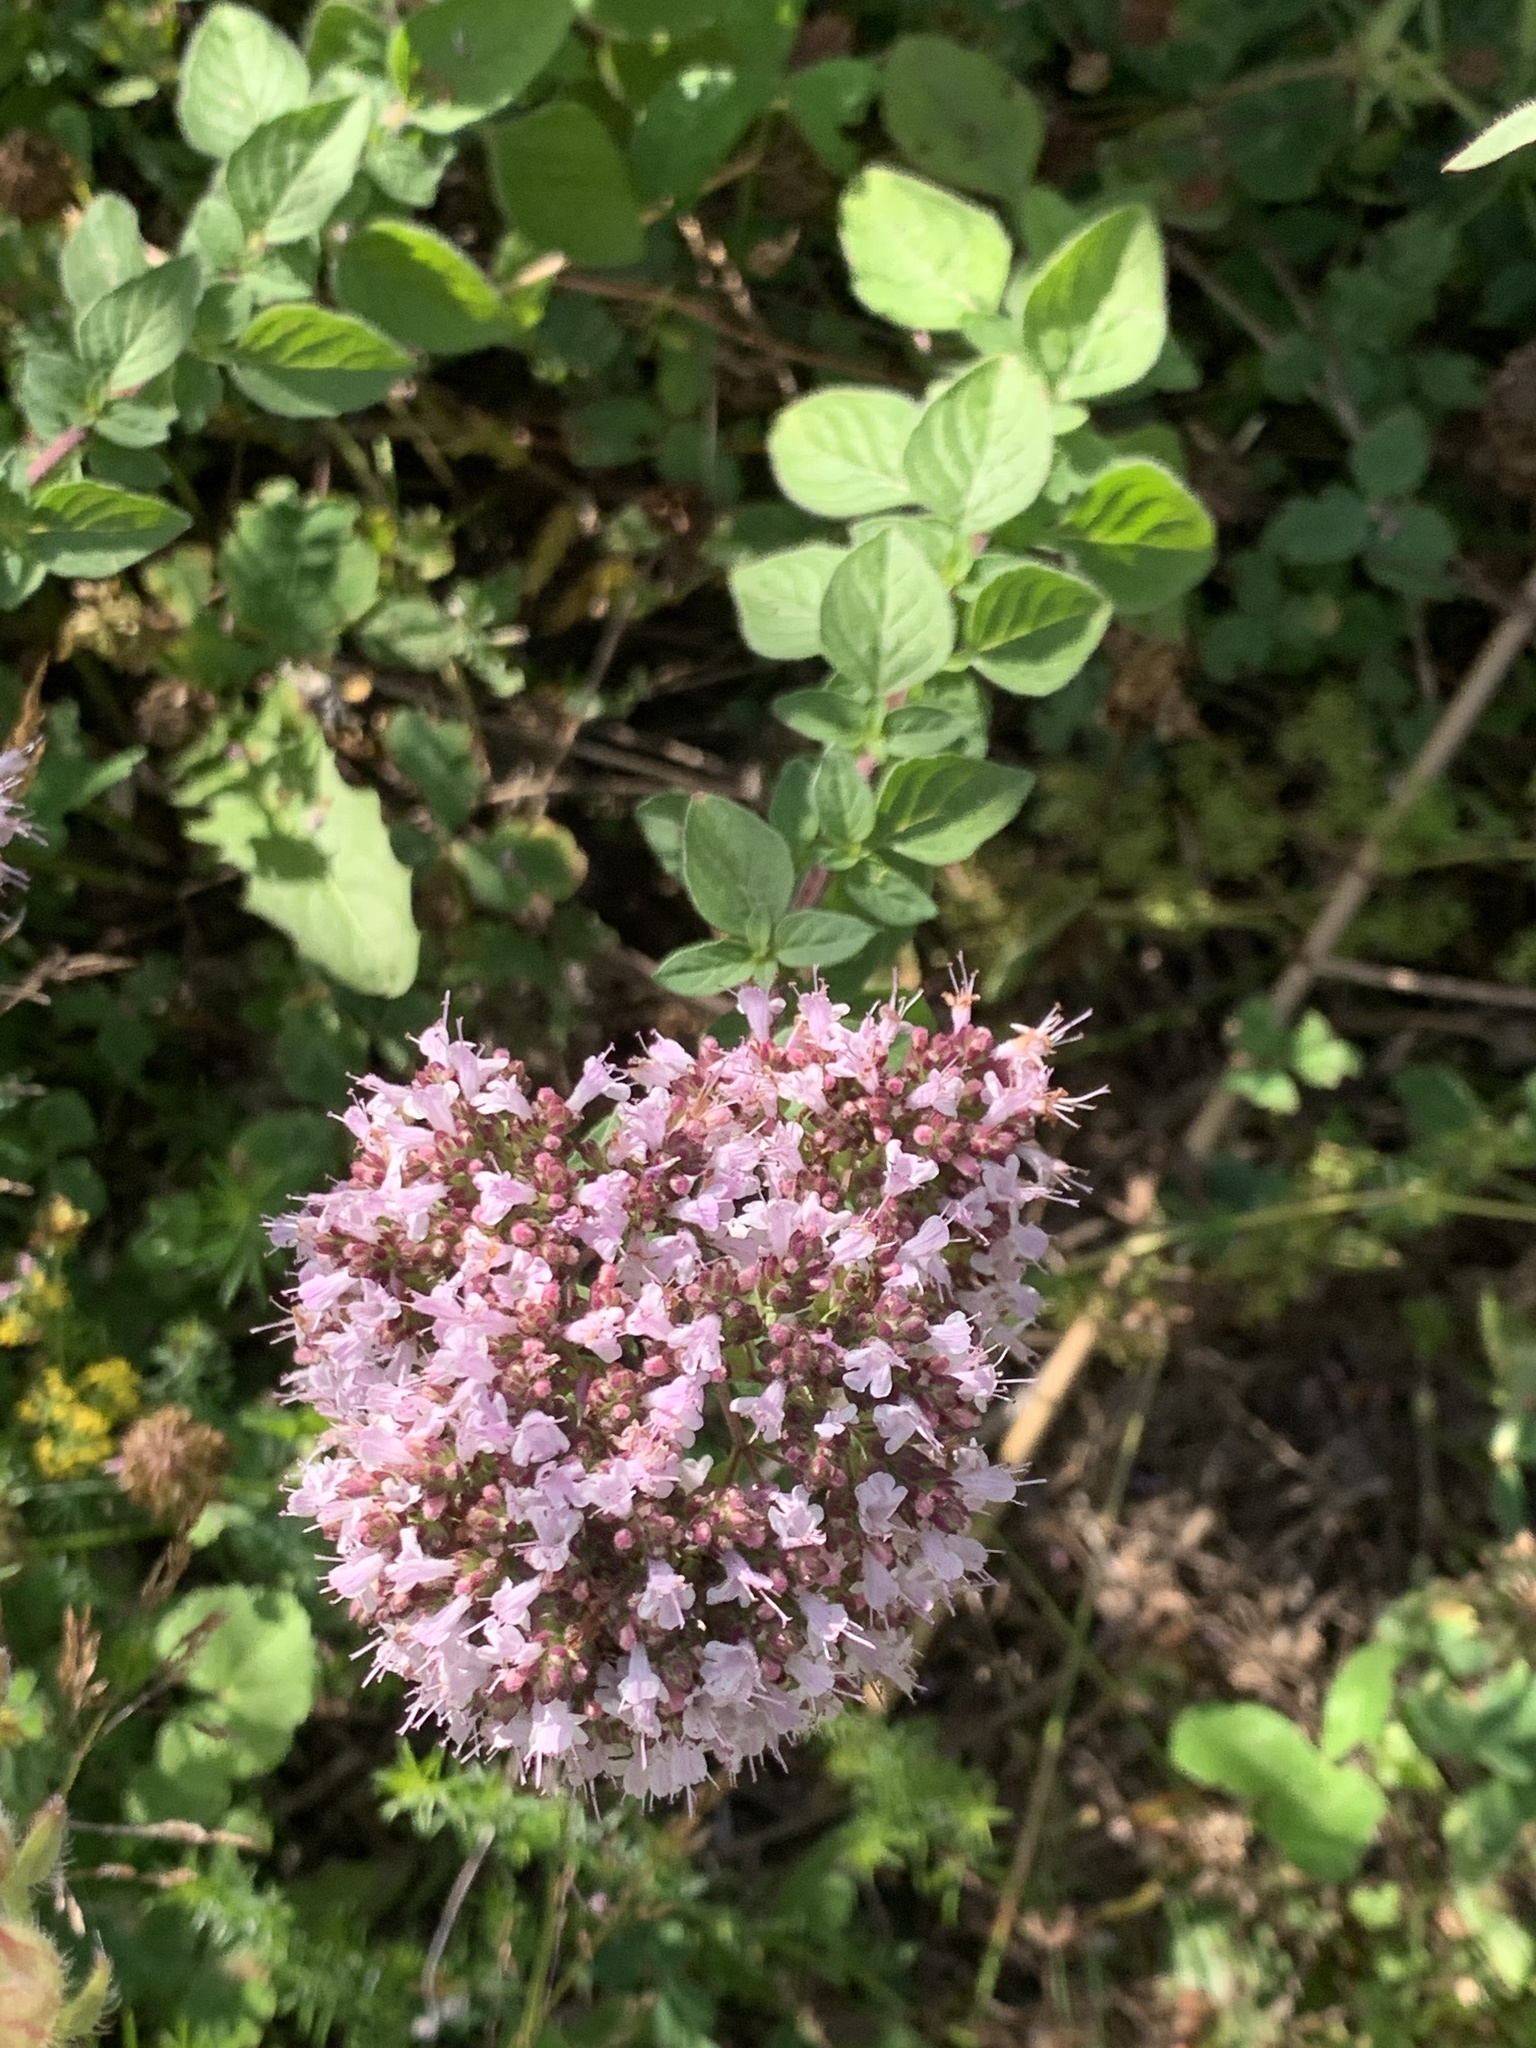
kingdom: Plantae
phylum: Tracheophyta
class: Magnoliopsida
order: Lamiales
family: Lamiaceae
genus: Origanum
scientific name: Origanum vulgare
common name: Wild marjoram
